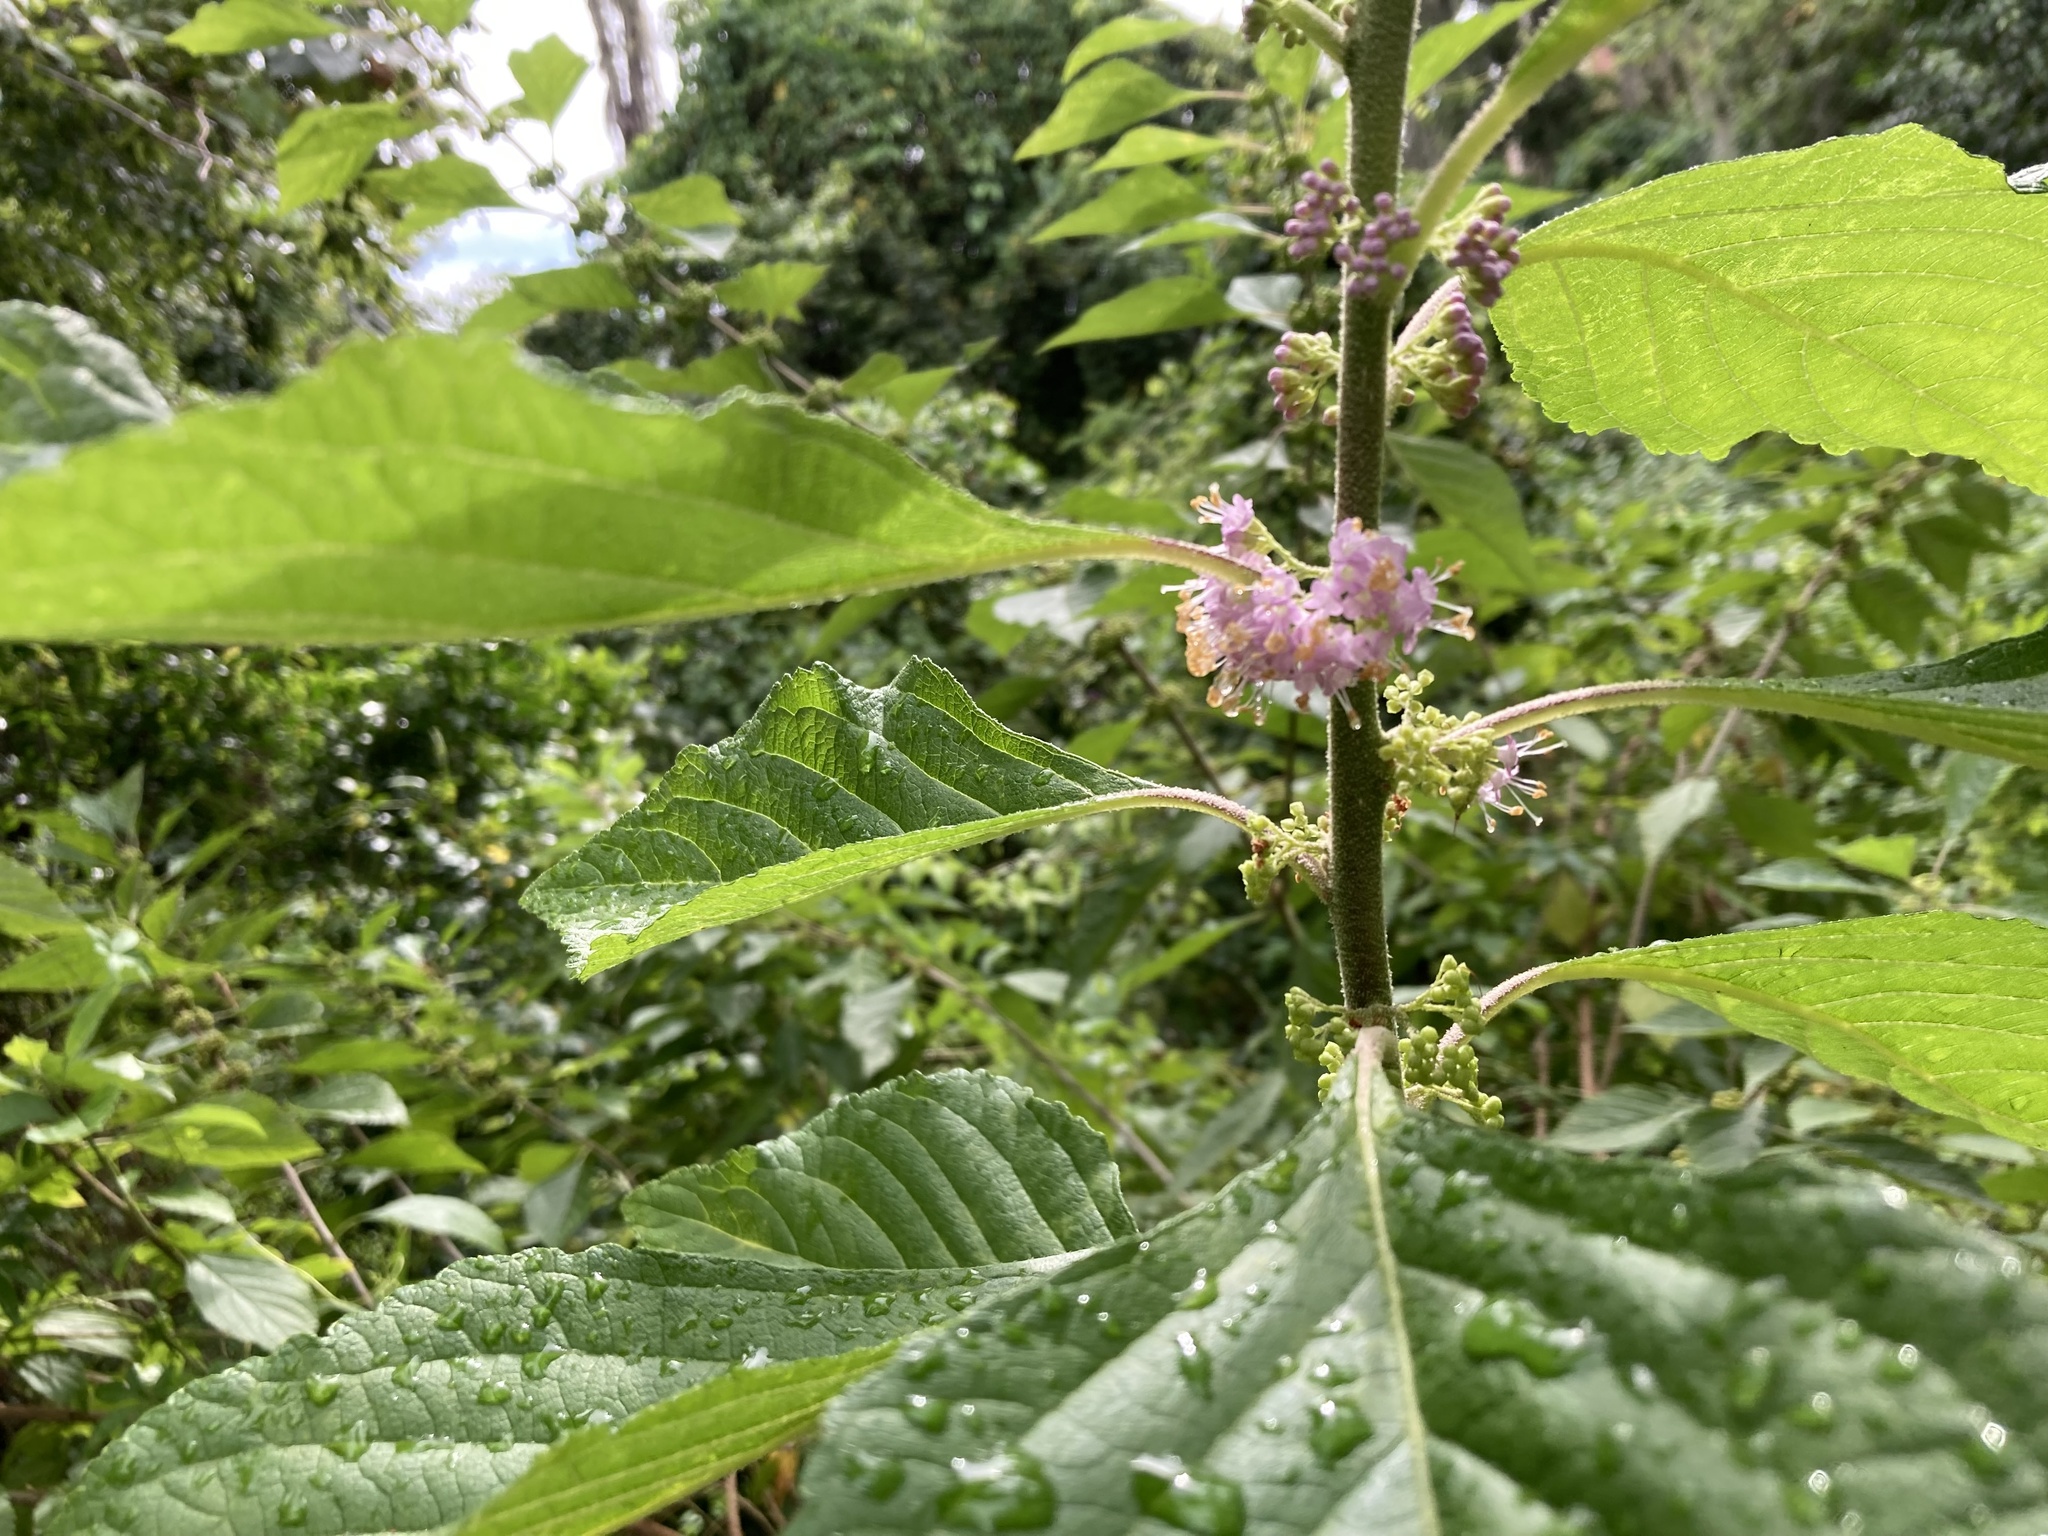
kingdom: Plantae
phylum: Tracheophyta
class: Magnoliopsida
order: Lamiales
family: Lamiaceae
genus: Callicarpa
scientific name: Callicarpa americana
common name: American beautyberry
